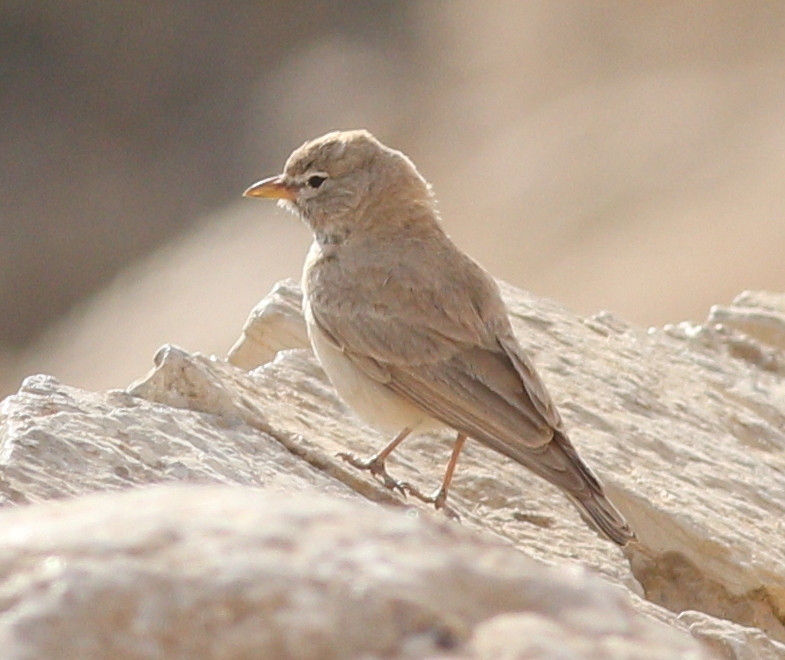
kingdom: Animalia
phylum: Chordata
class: Aves
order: Passeriformes
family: Alaudidae
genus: Ammomanes
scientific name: Ammomanes deserti
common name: Desert lark
